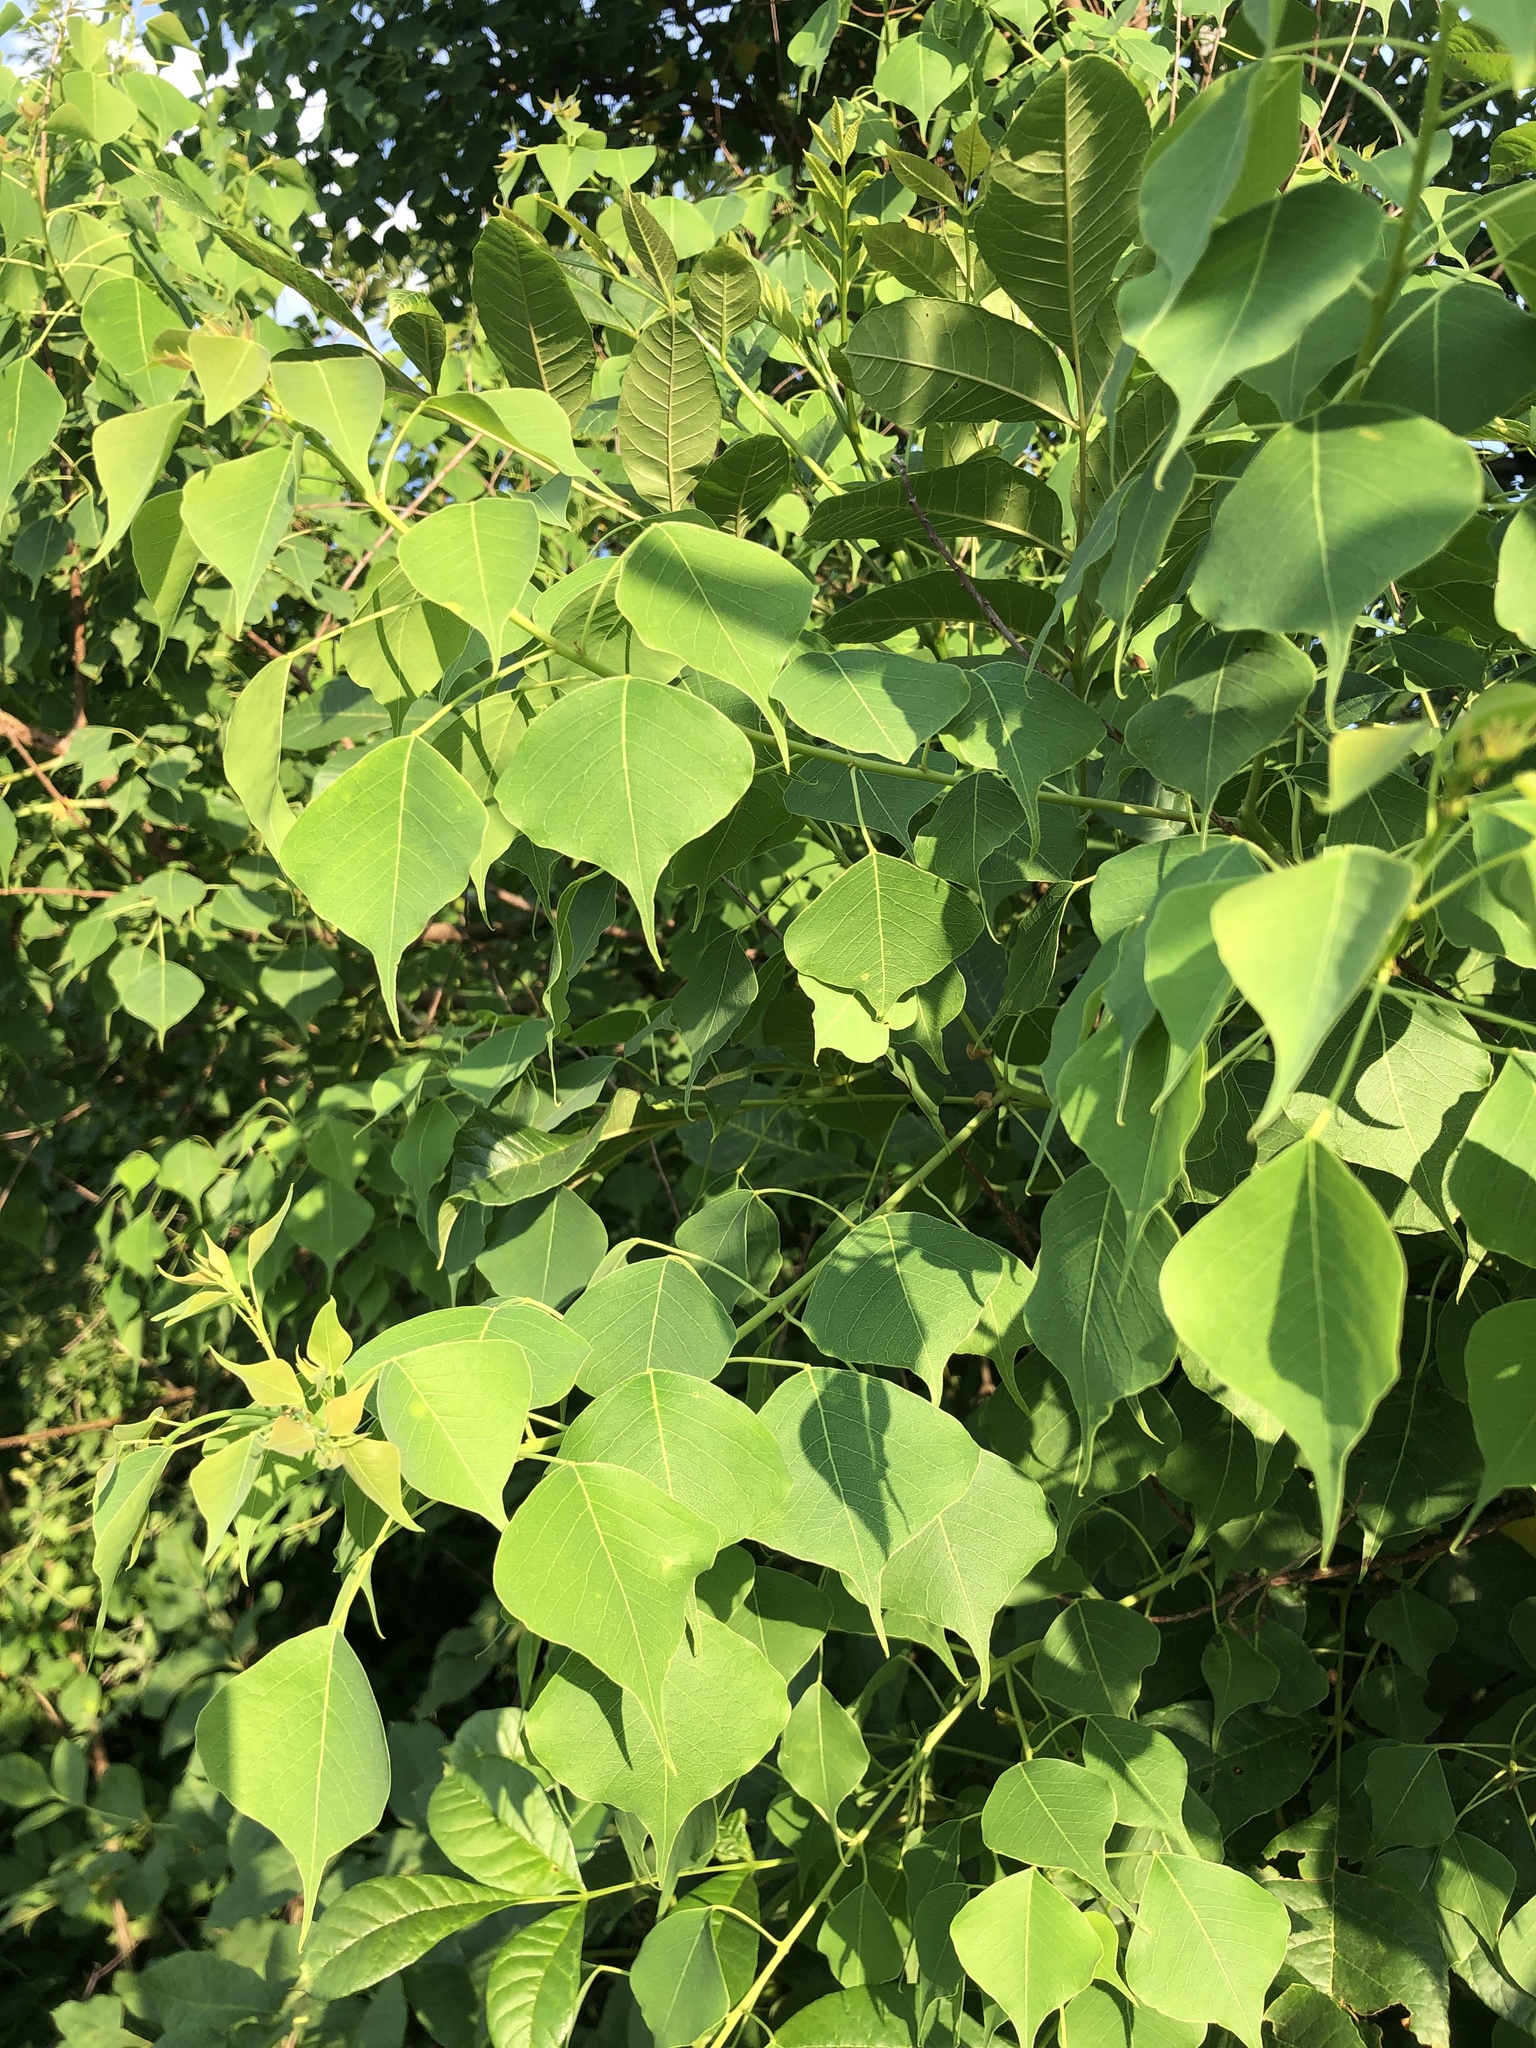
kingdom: Plantae
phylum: Tracheophyta
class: Magnoliopsida
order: Malpighiales
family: Euphorbiaceae
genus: Triadica
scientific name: Triadica sebifera
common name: Chinese tallow
